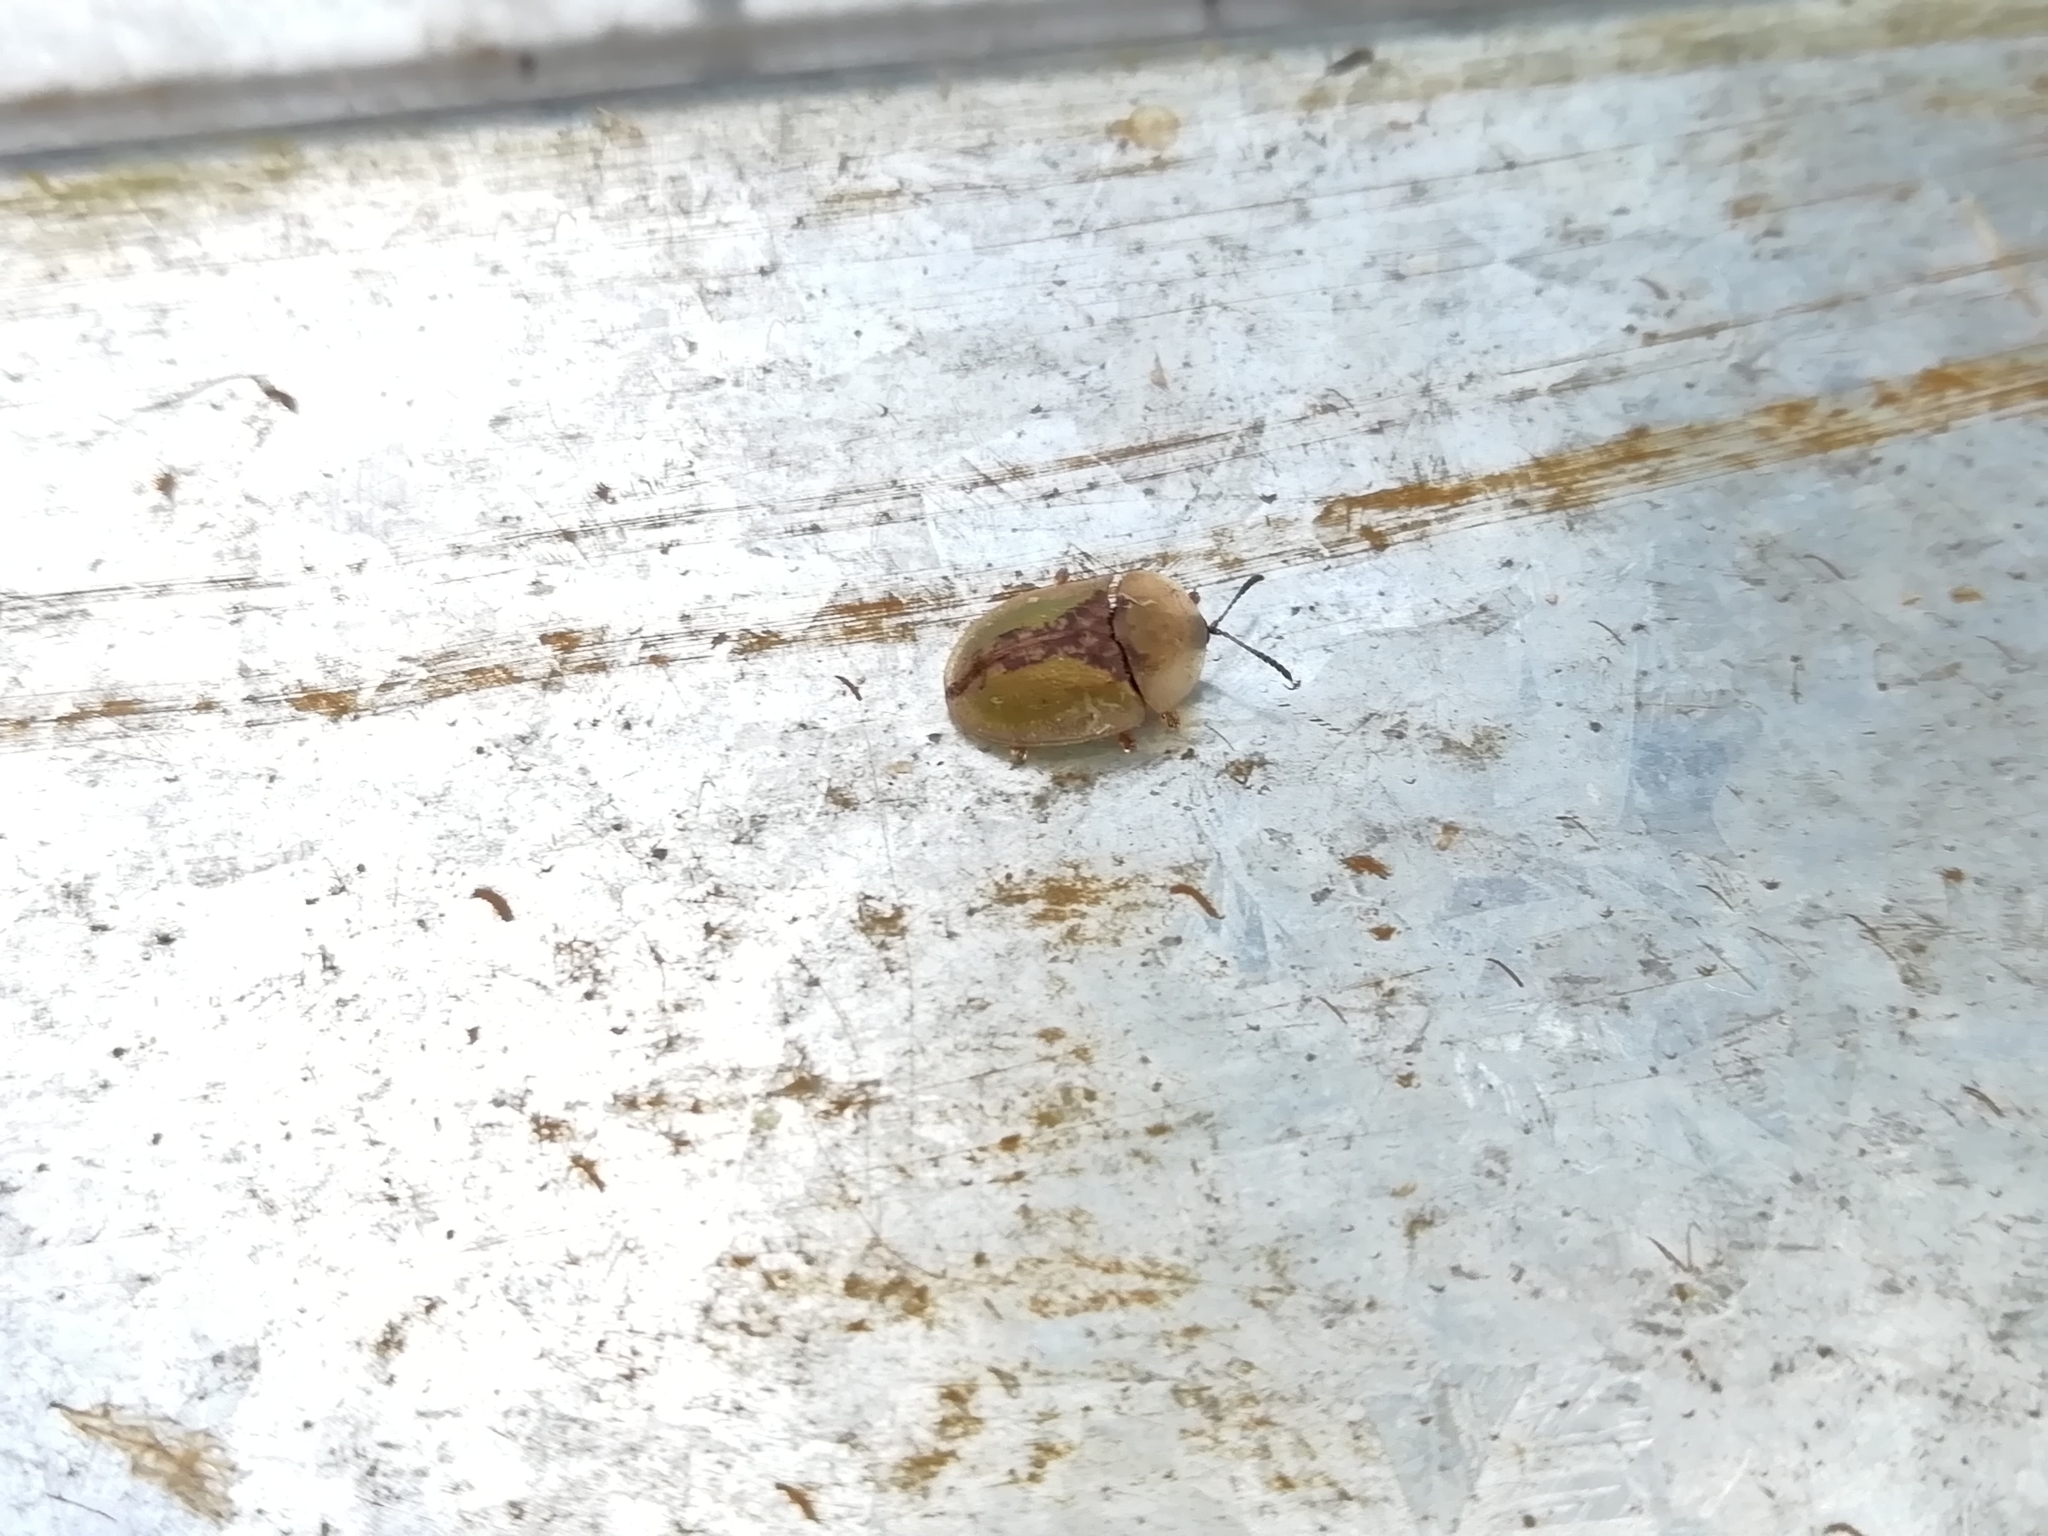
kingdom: Animalia
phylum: Arthropoda
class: Insecta
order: Coleoptera
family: Chrysomelidae
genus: Cassida
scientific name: Cassida vibex
